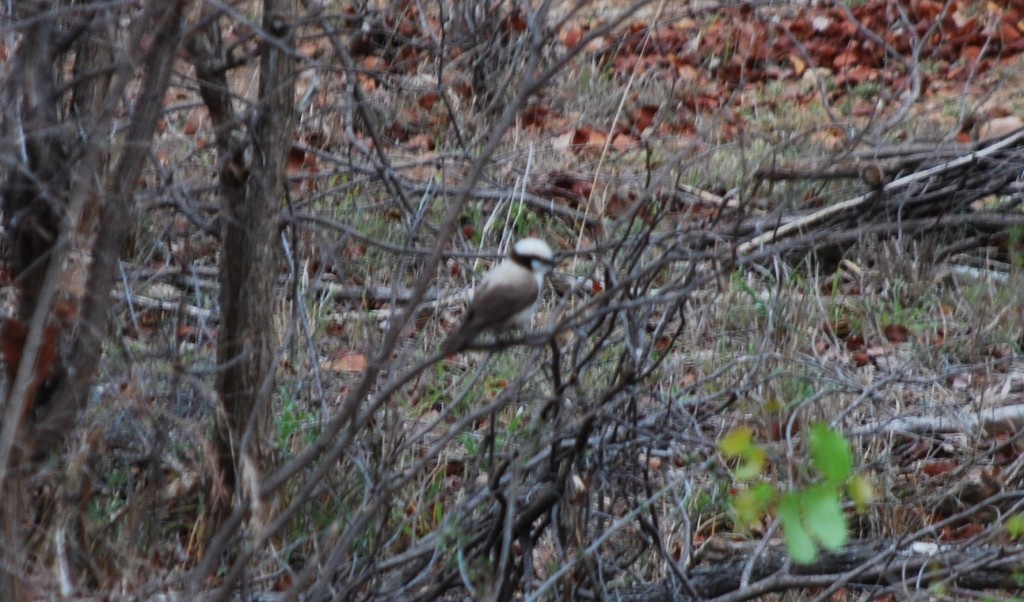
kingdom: Animalia
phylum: Chordata
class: Aves
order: Passeriformes
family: Laniidae
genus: Eurocephalus
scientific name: Eurocephalus anguitimens
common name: Southern white-crowned shrike
